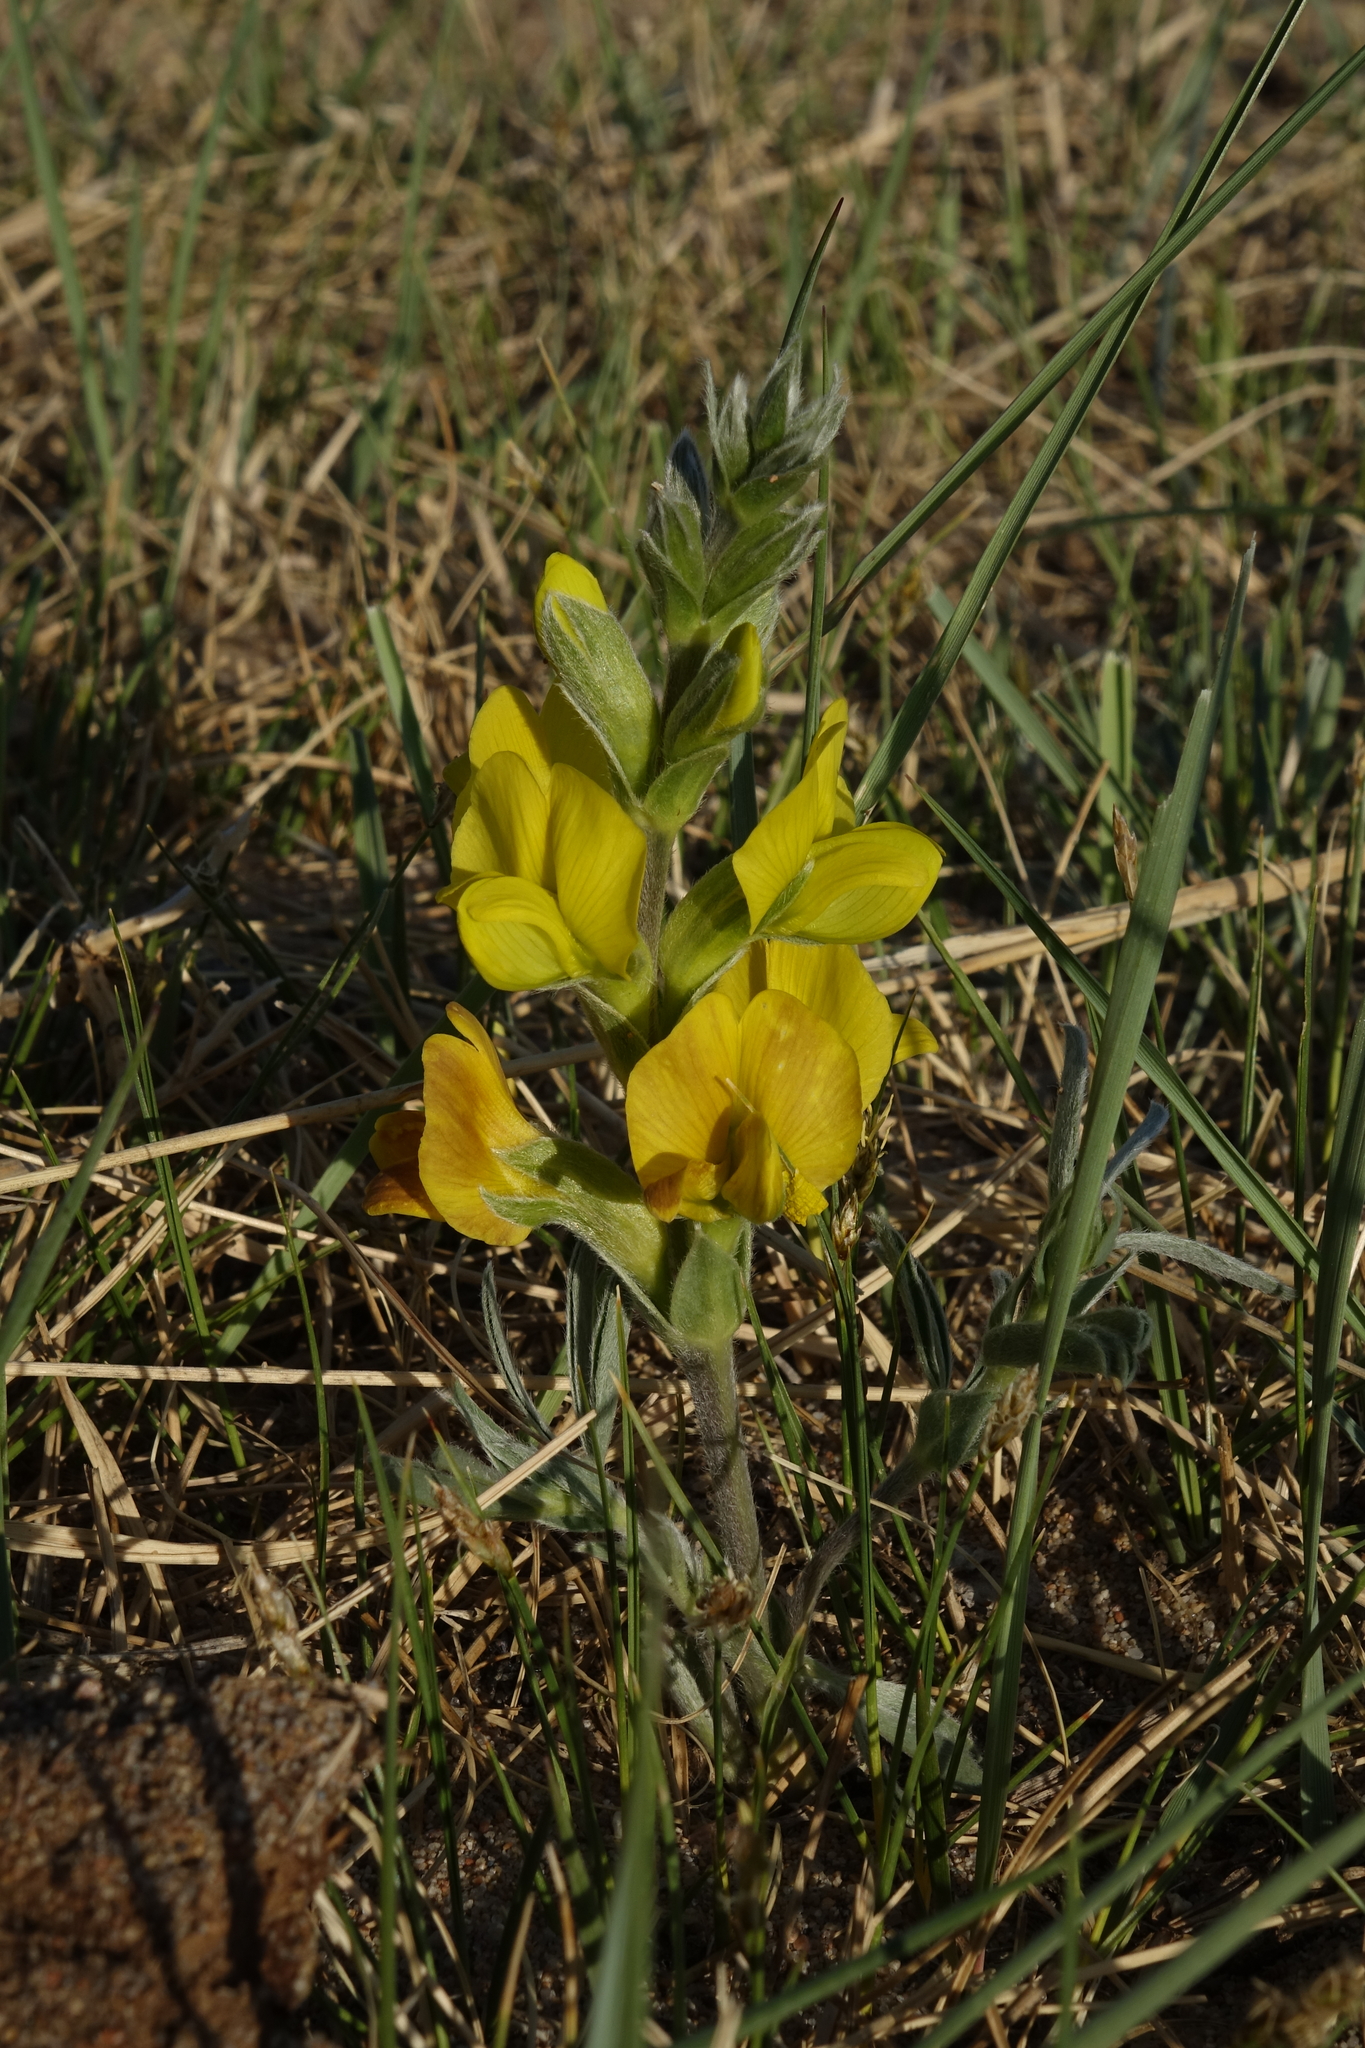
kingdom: Plantae
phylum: Tracheophyta
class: Magnoliopsida
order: Fabales
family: Fabaceae
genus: Thermopsis
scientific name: Thermopsis mongolica
